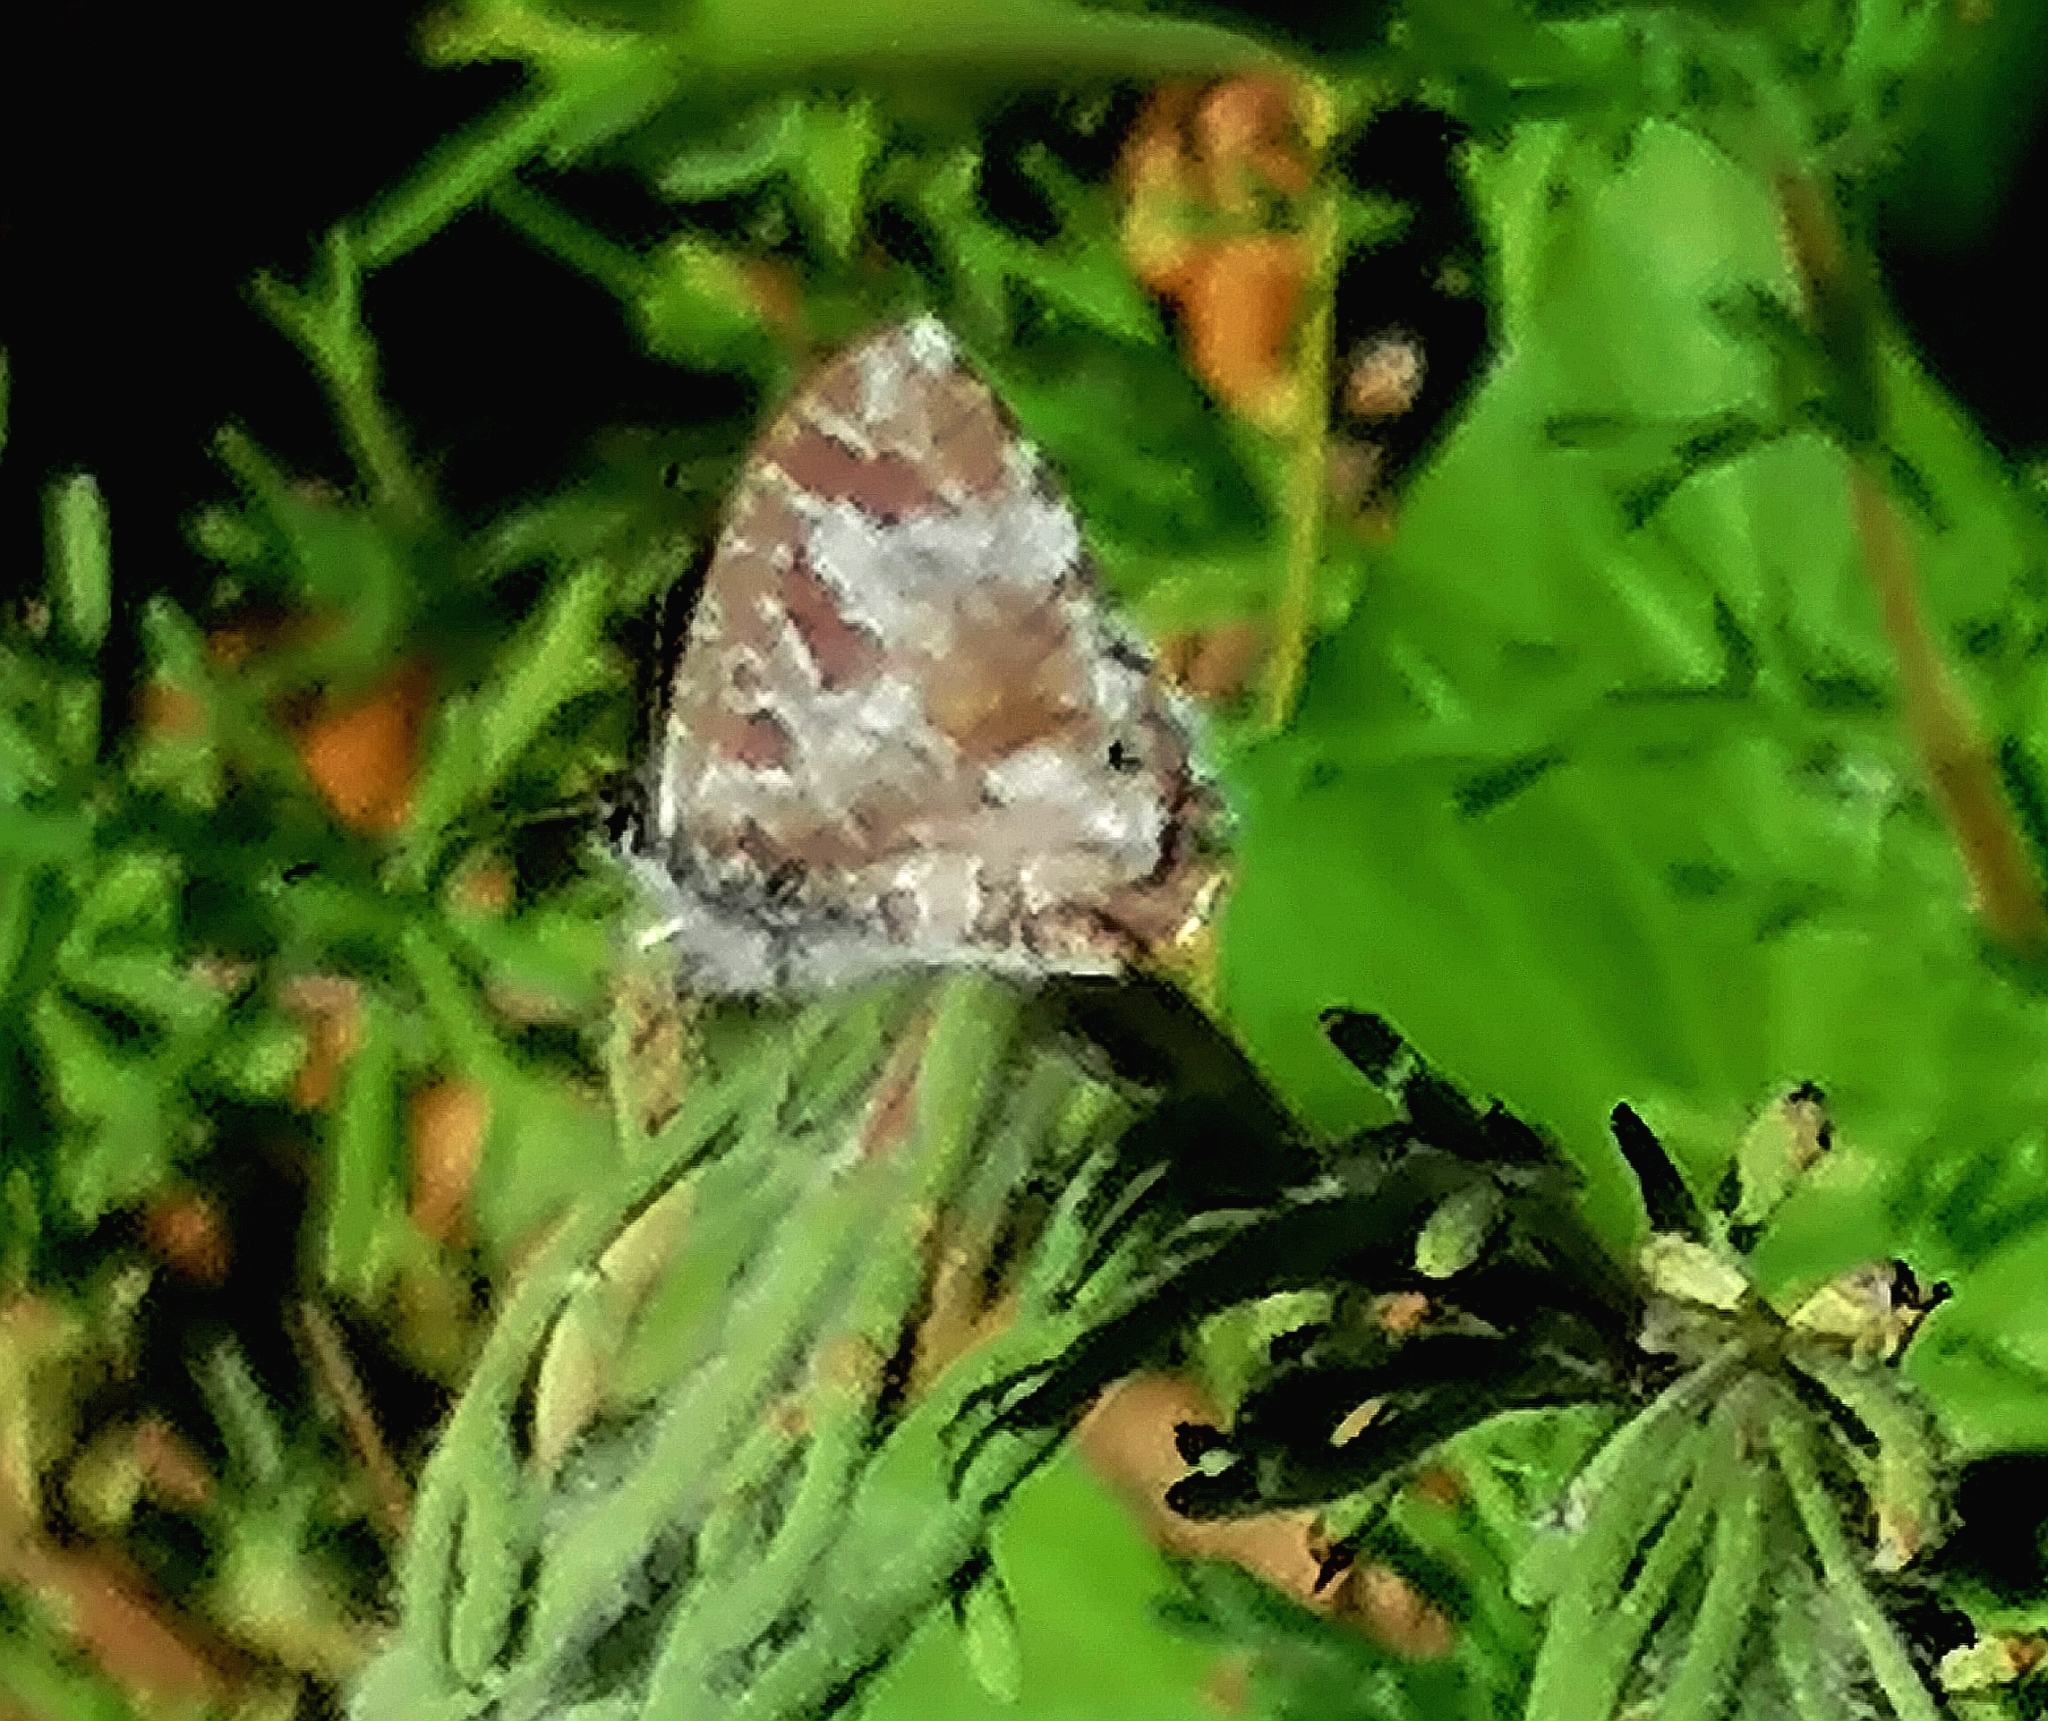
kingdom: Animalia
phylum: Arthropoda
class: Insecta
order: Lepidoptera
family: Lycaenidae
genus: Cacyreus
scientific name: Cacyreus lingeus
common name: Bush bronze
